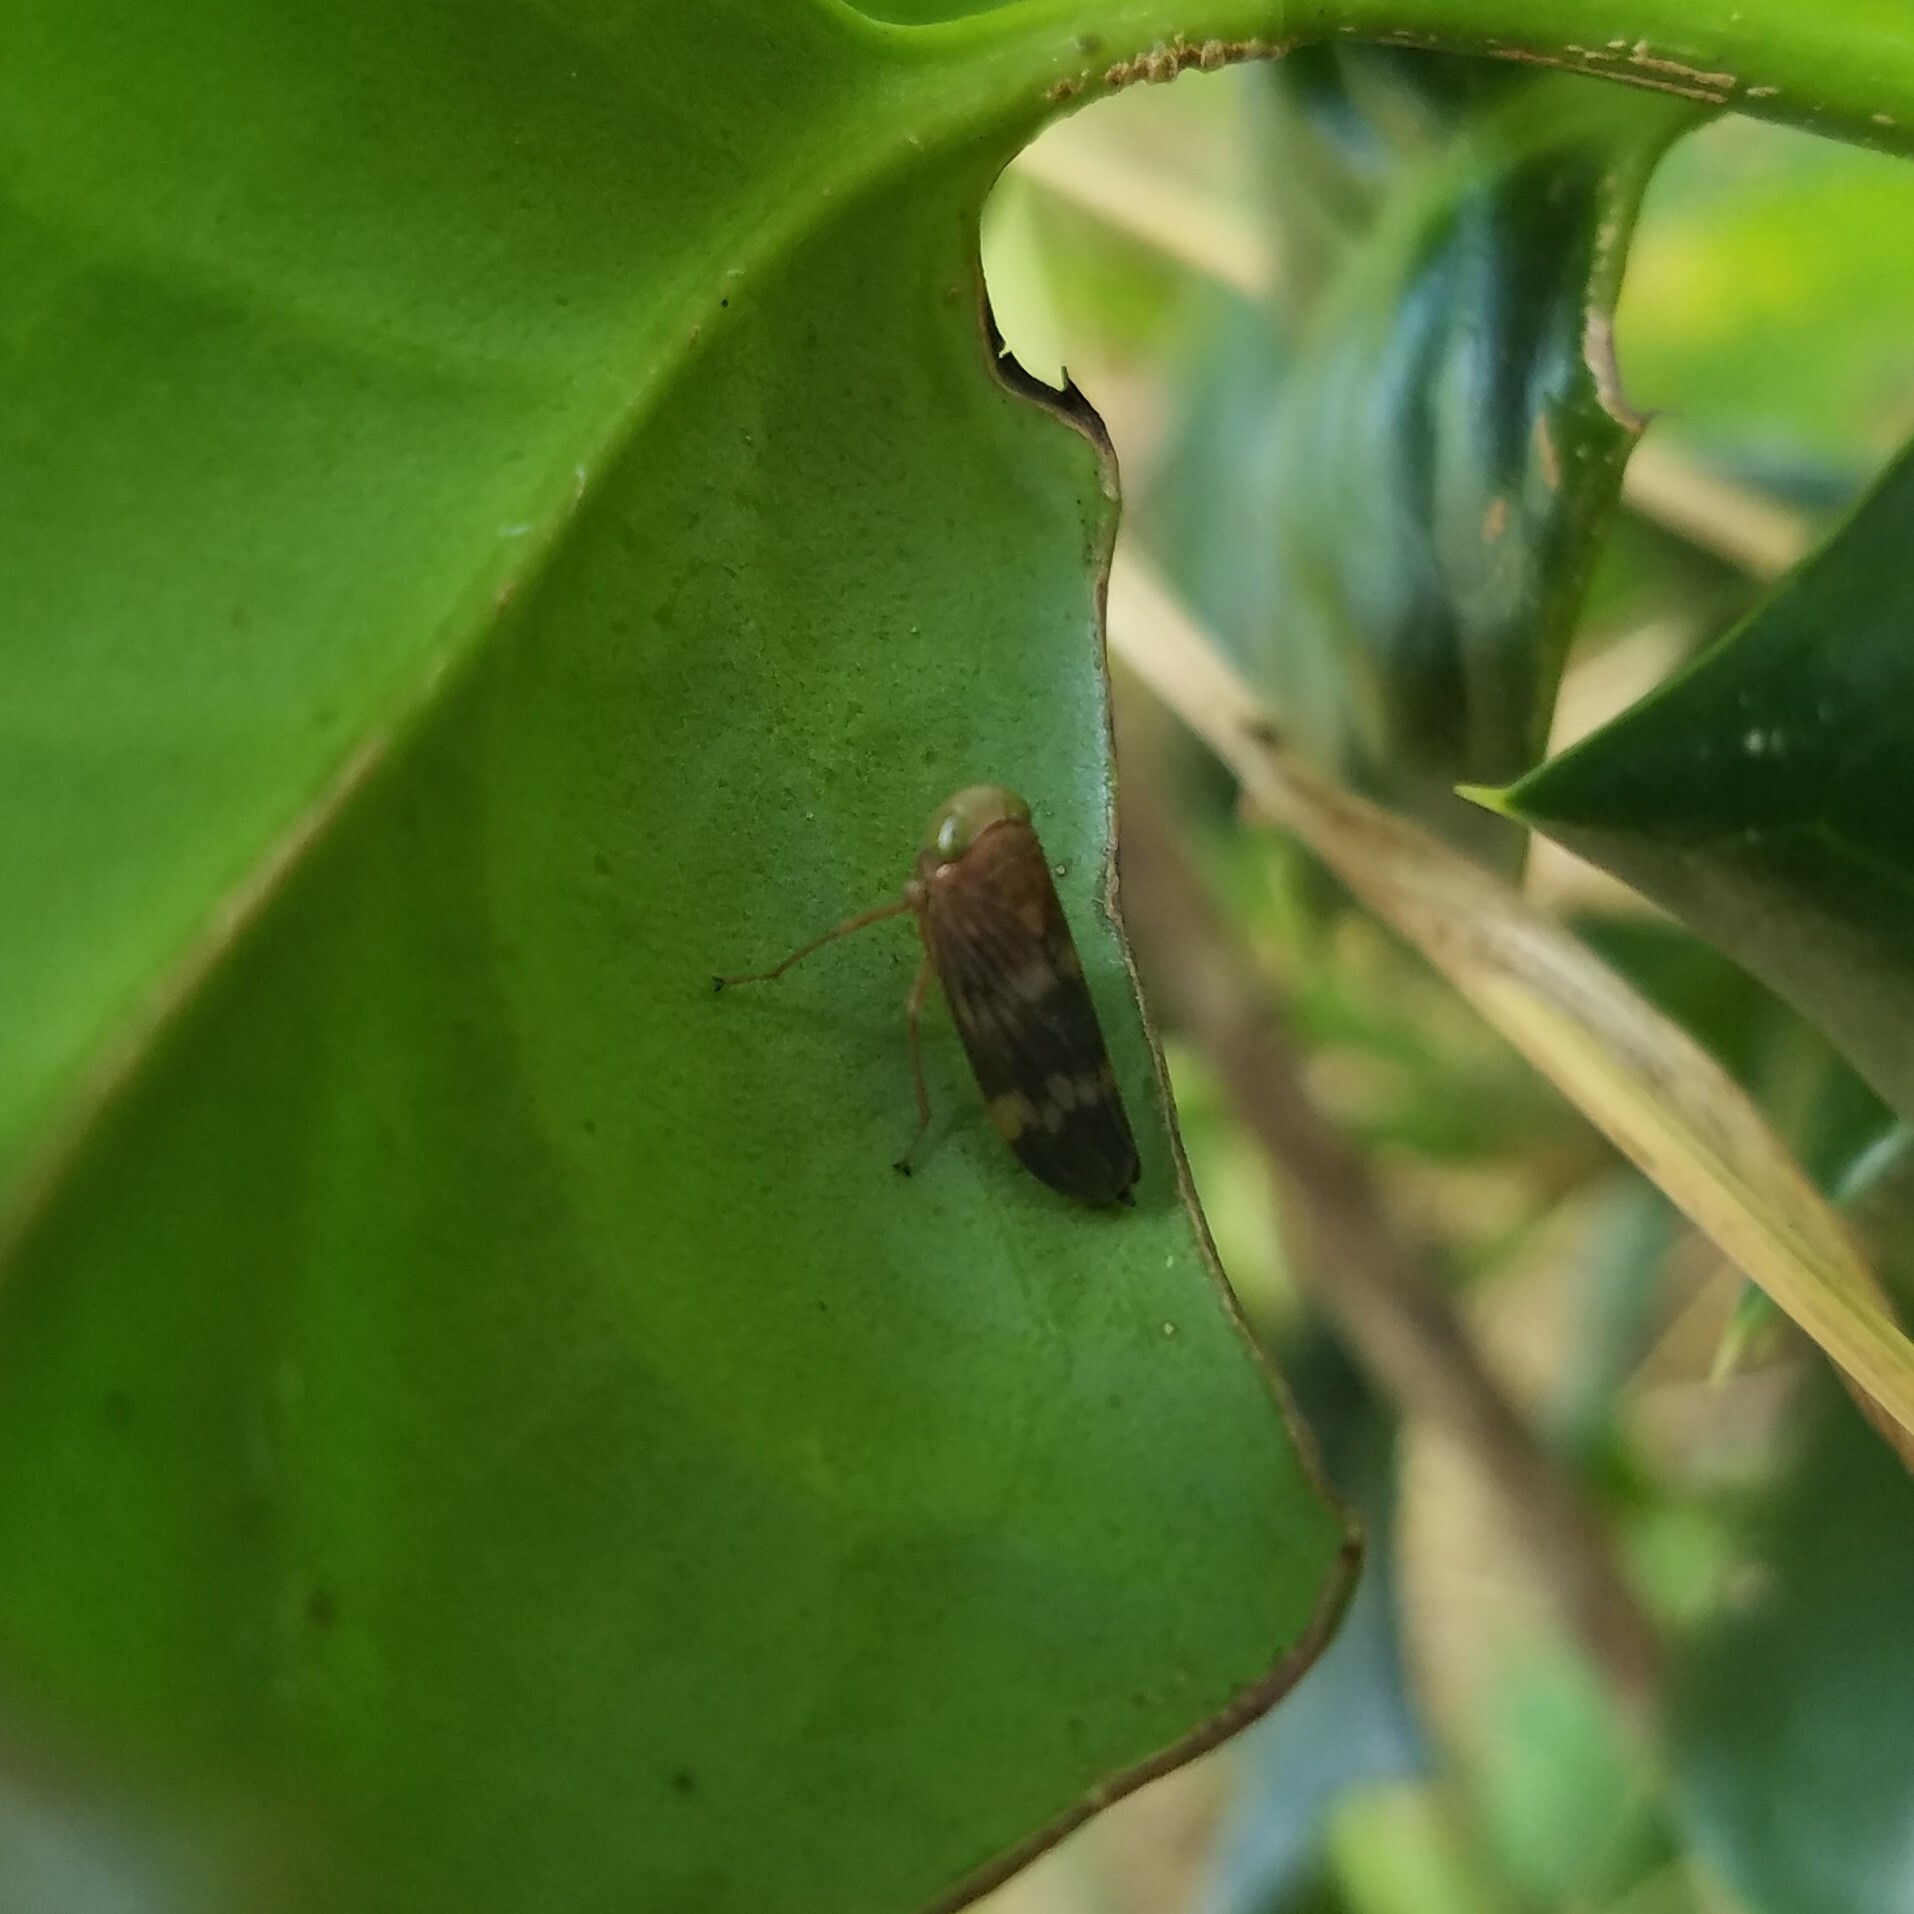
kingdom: Animalia
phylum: Arthropoda
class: Insecta
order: Hemiptera
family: Cicadellidae
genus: Jikradia
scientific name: Jikradia olitoria
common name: Coppery leafhopper
